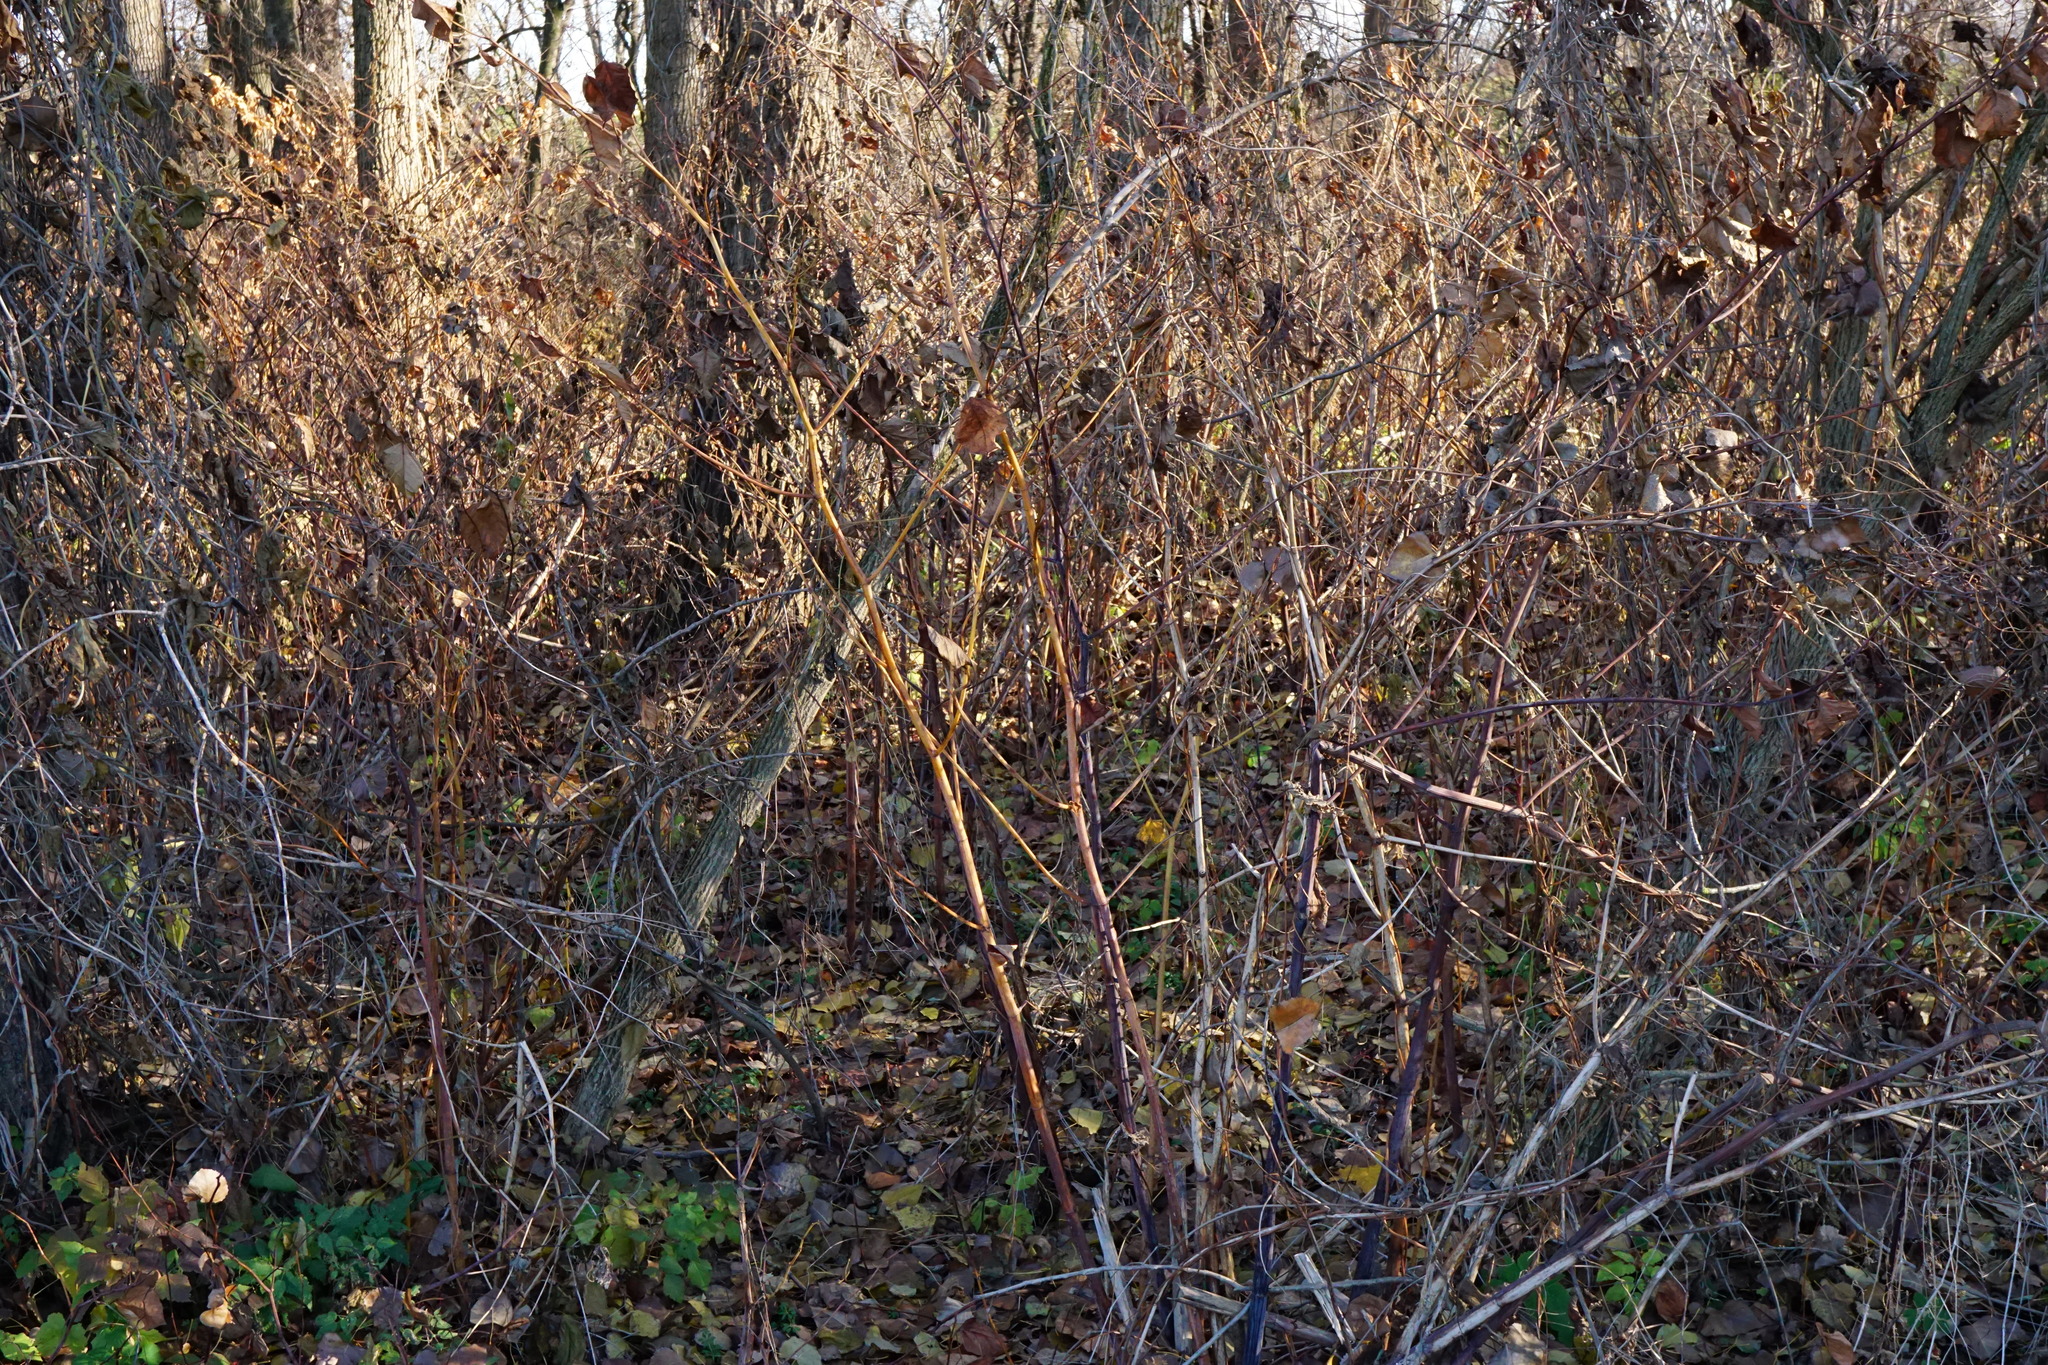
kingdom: Plantae
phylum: Tracheophyta
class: Magnoliopsida
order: Caryophyllales
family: Polygonaceae
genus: Reynoutria
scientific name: Reynoutria japonica
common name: Japanese knotweed
